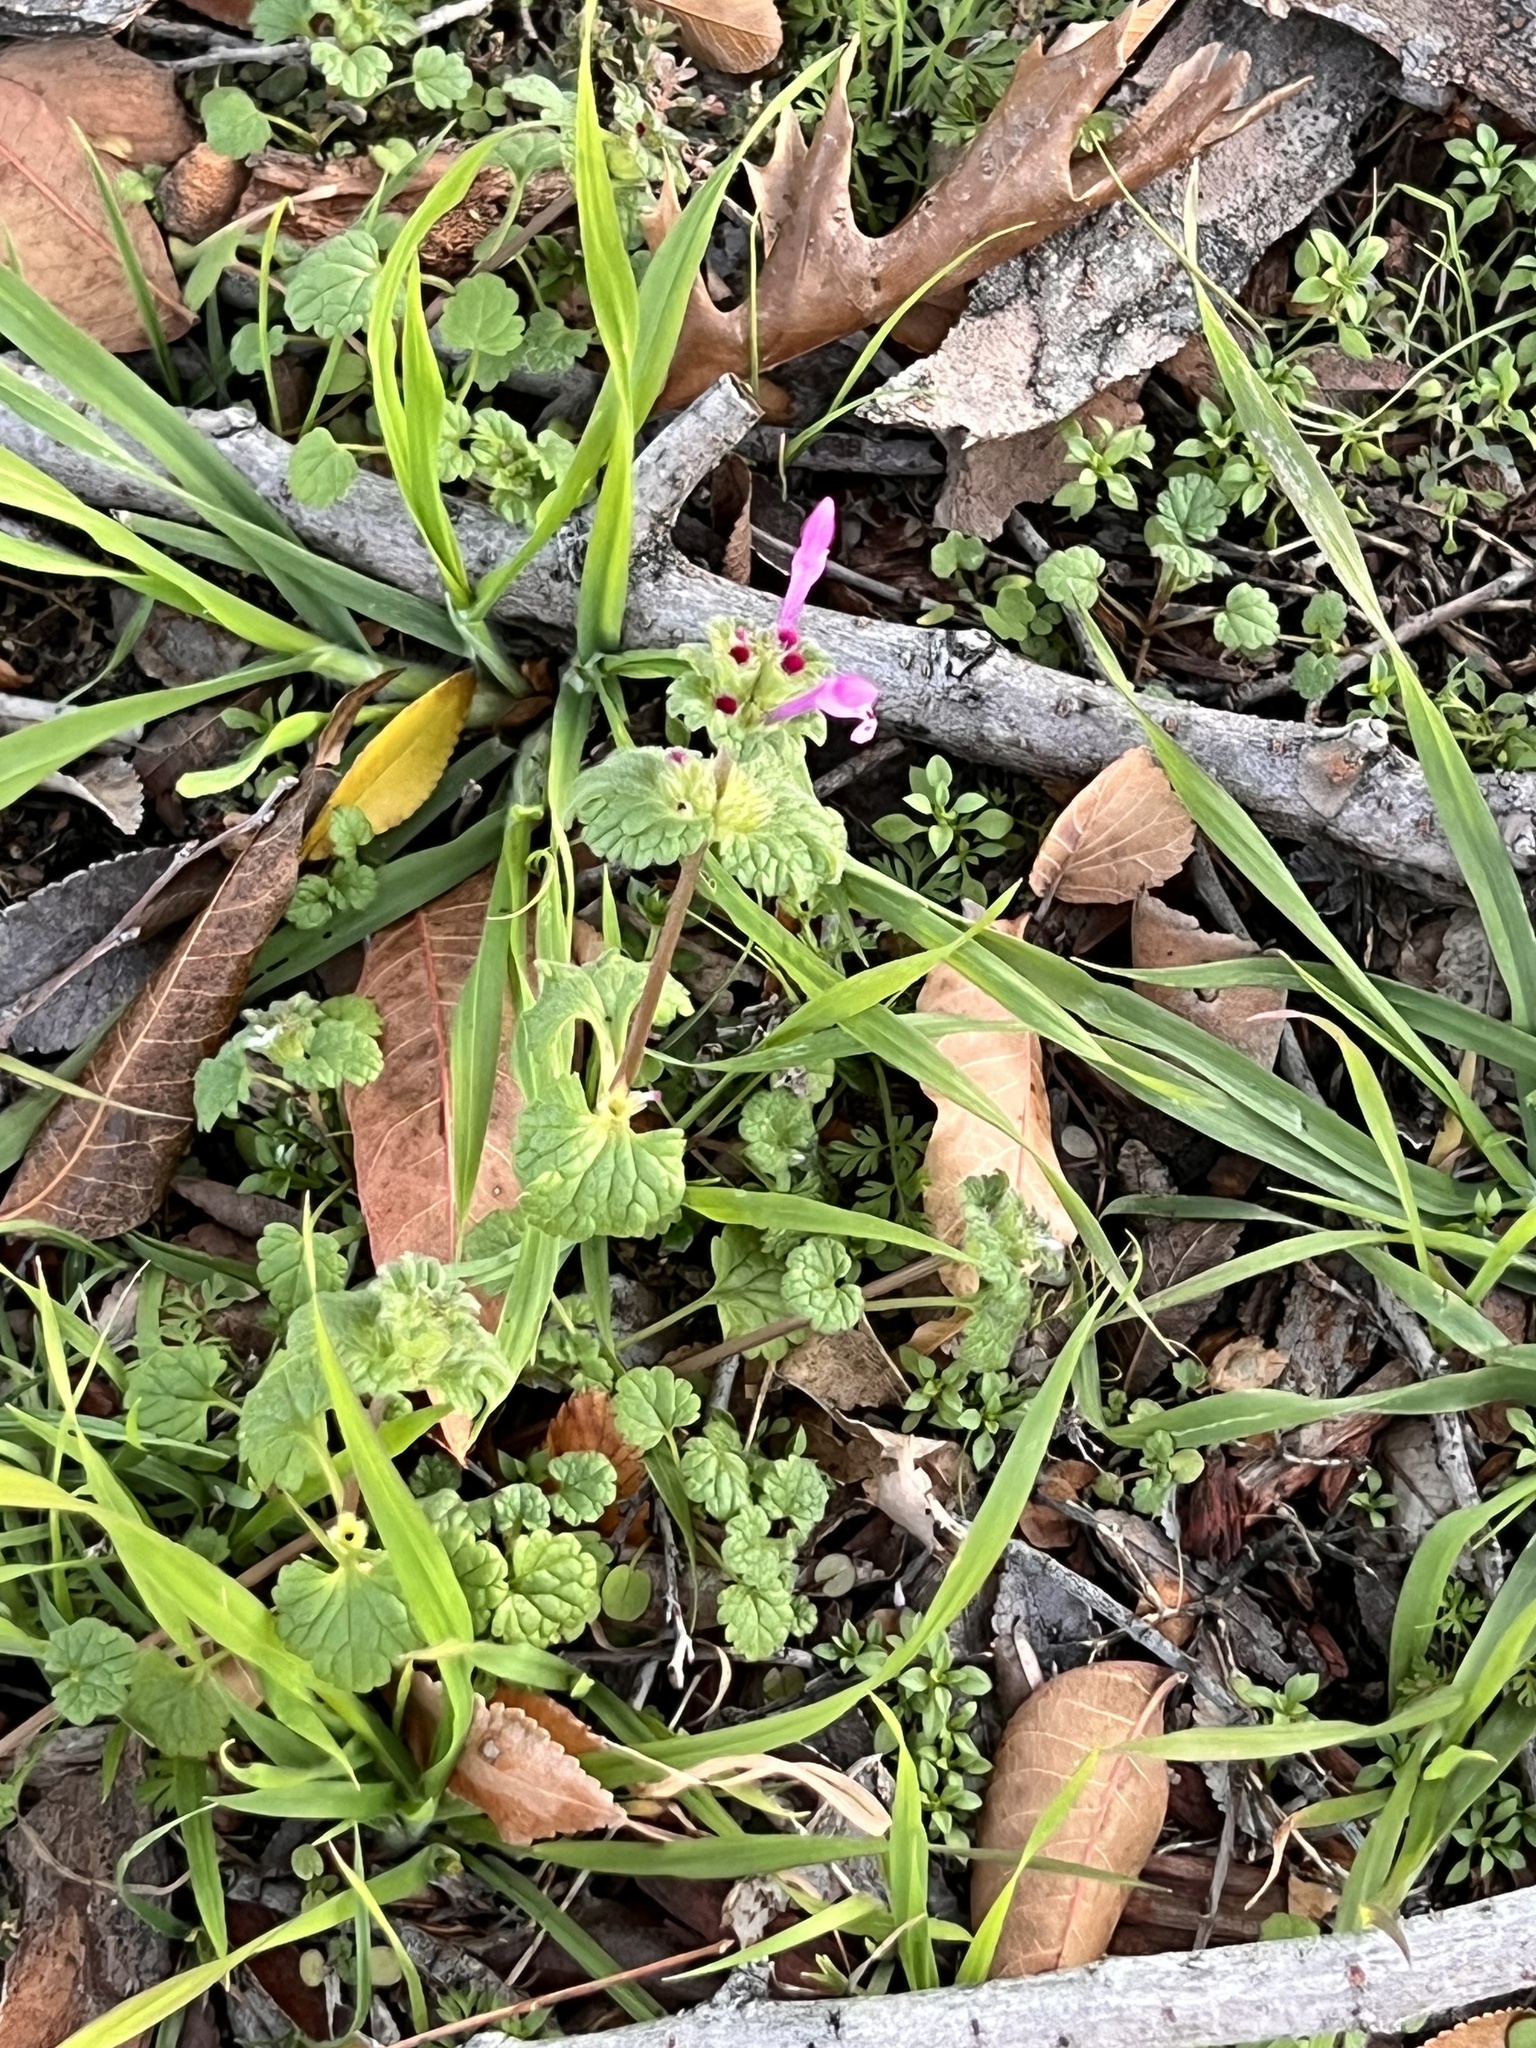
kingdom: Plantae
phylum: Tracheophyta
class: Magnoliopsida
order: Lamiales
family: Lamiaceae
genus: Lamium
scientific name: Lamium amplexicaule
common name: Henbit dead-nettle
